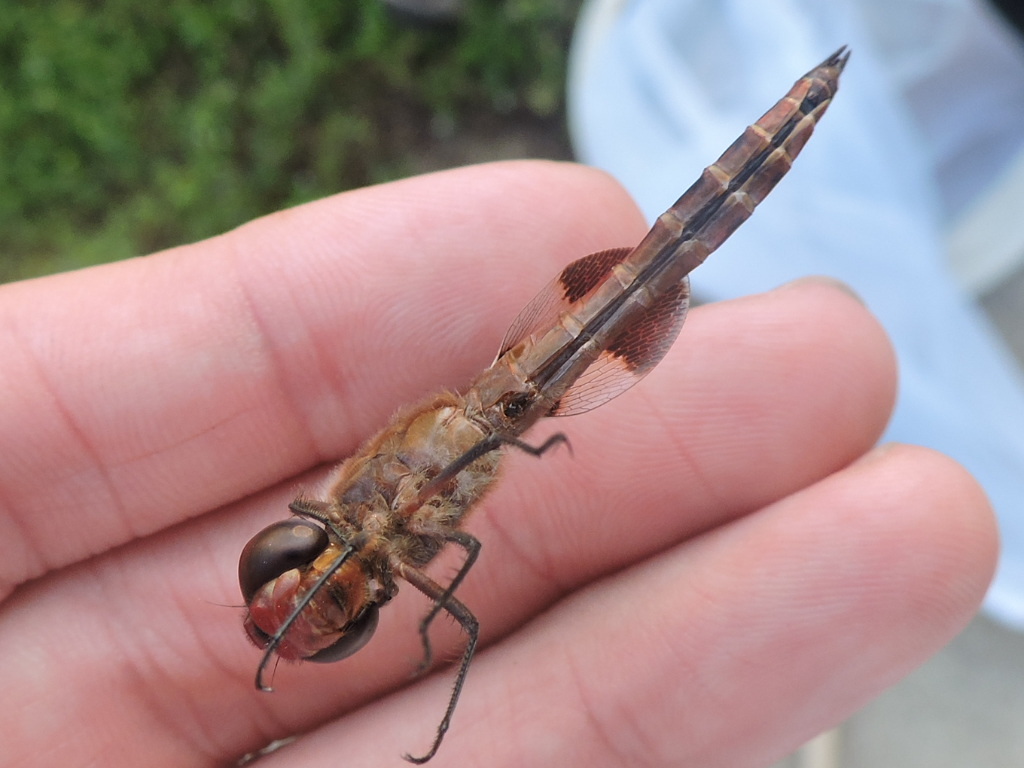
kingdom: Animalia
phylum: Arthropoda
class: Insecta
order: Odonata
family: Libellulidae
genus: Tramea
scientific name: Tramea onusta
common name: Red saddlebags
